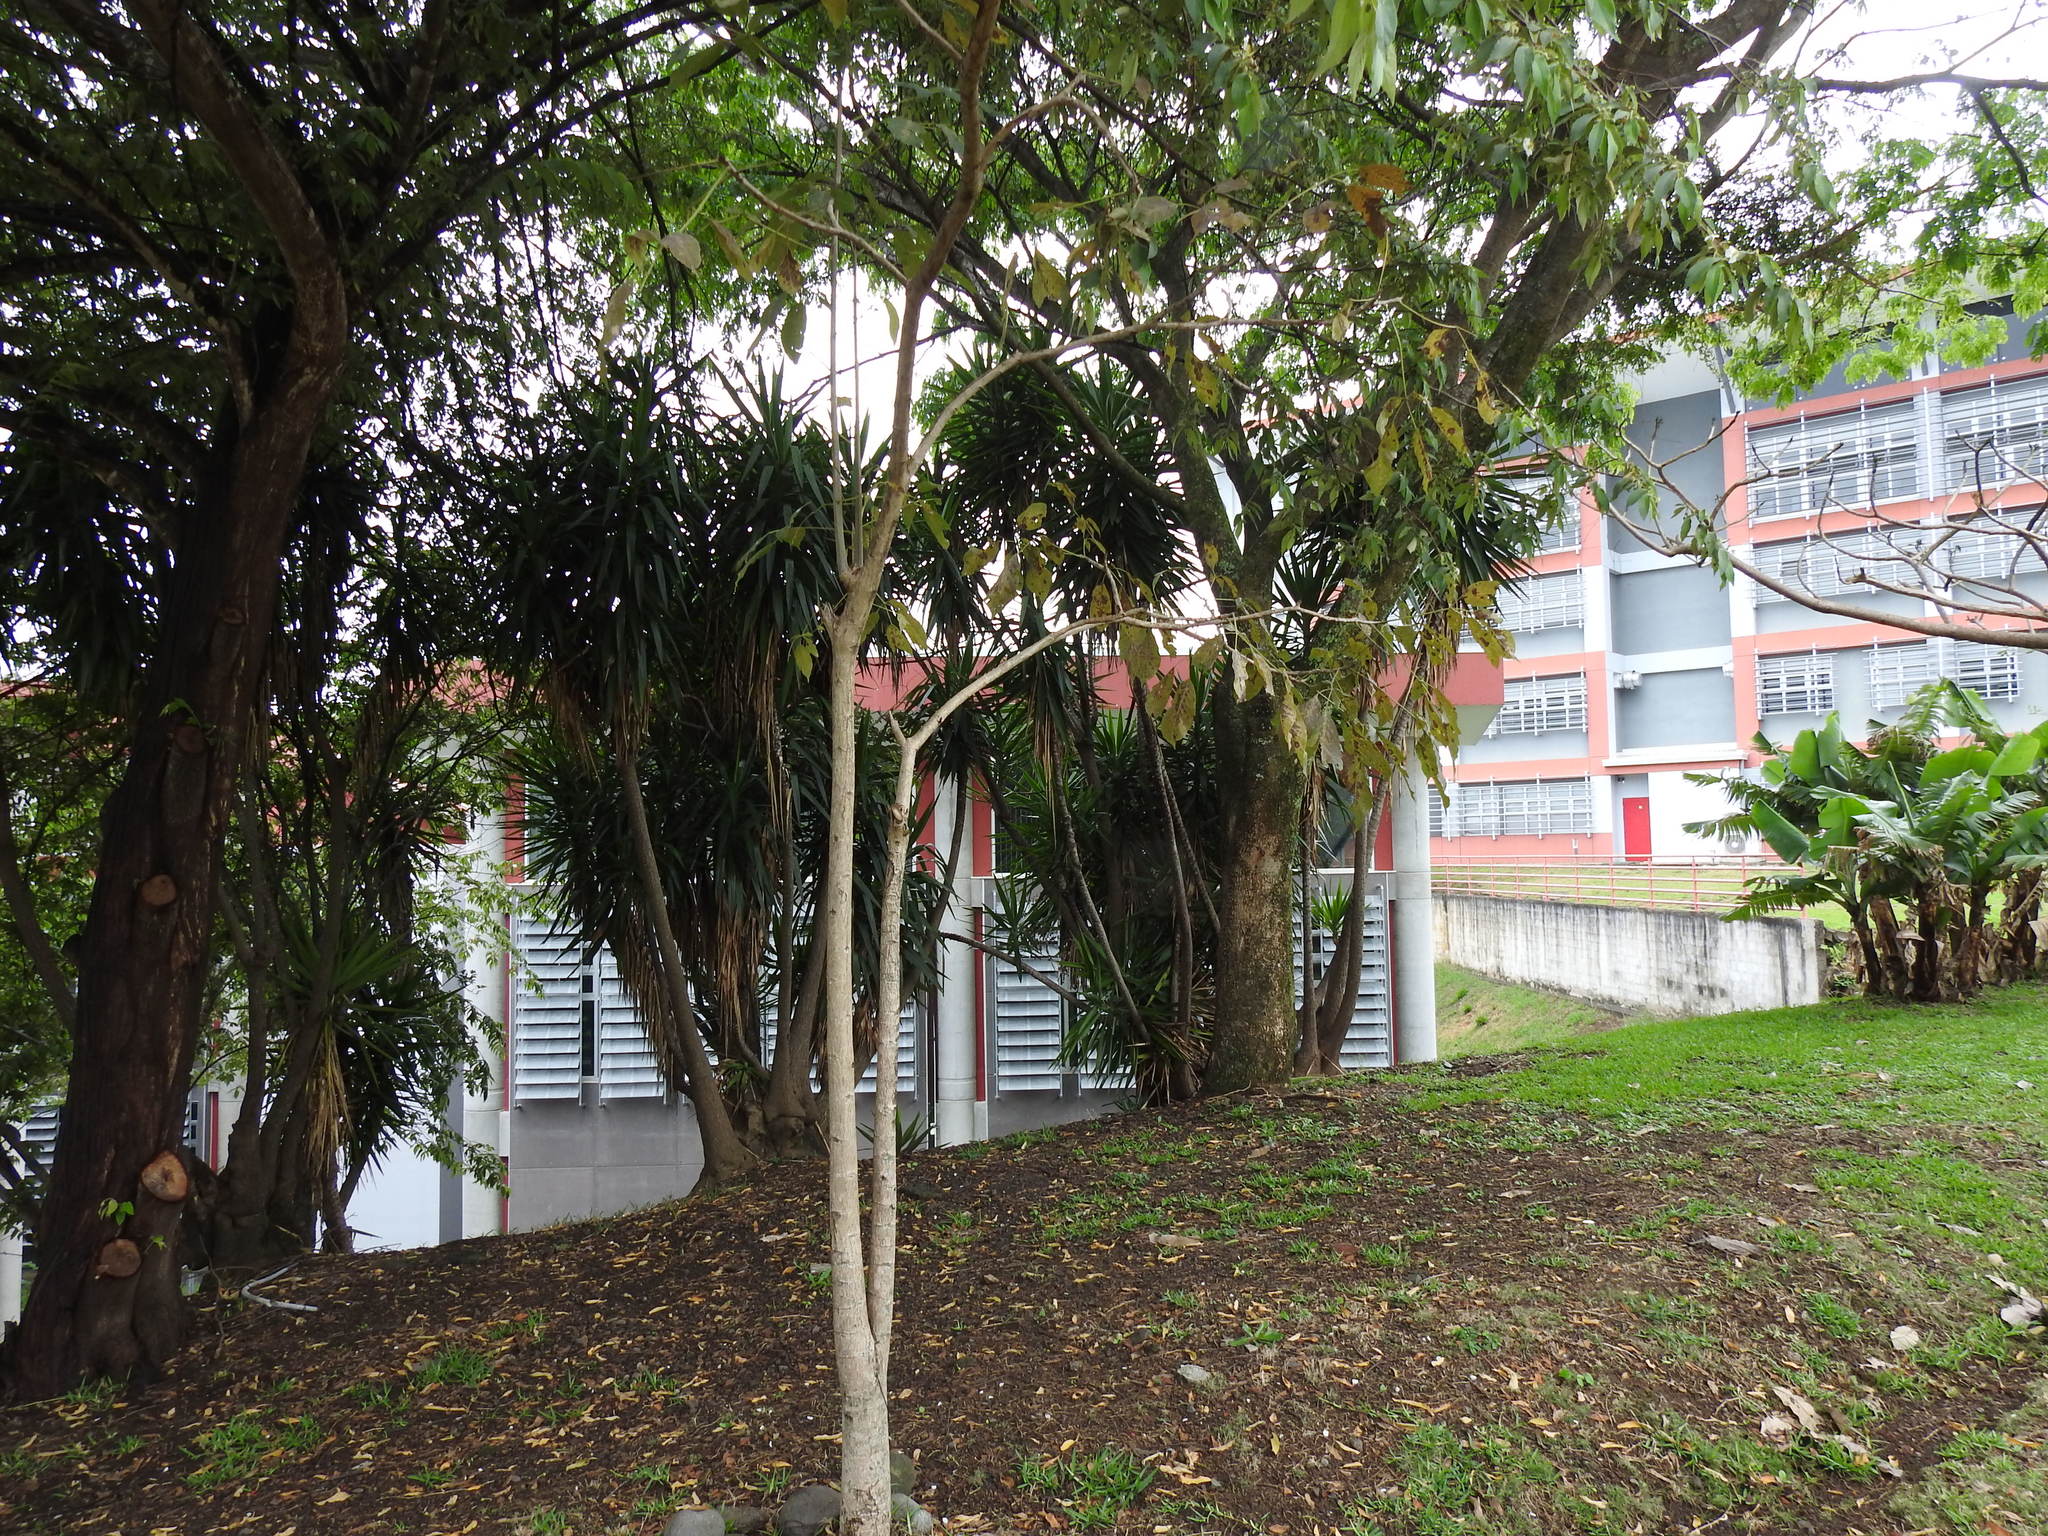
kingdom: Plantae
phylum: Tracheophyta
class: Magnoliopsida
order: Malvales
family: Muntingiaceae
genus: Muntingia
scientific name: Muntingia calabura
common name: Strawberrytree
